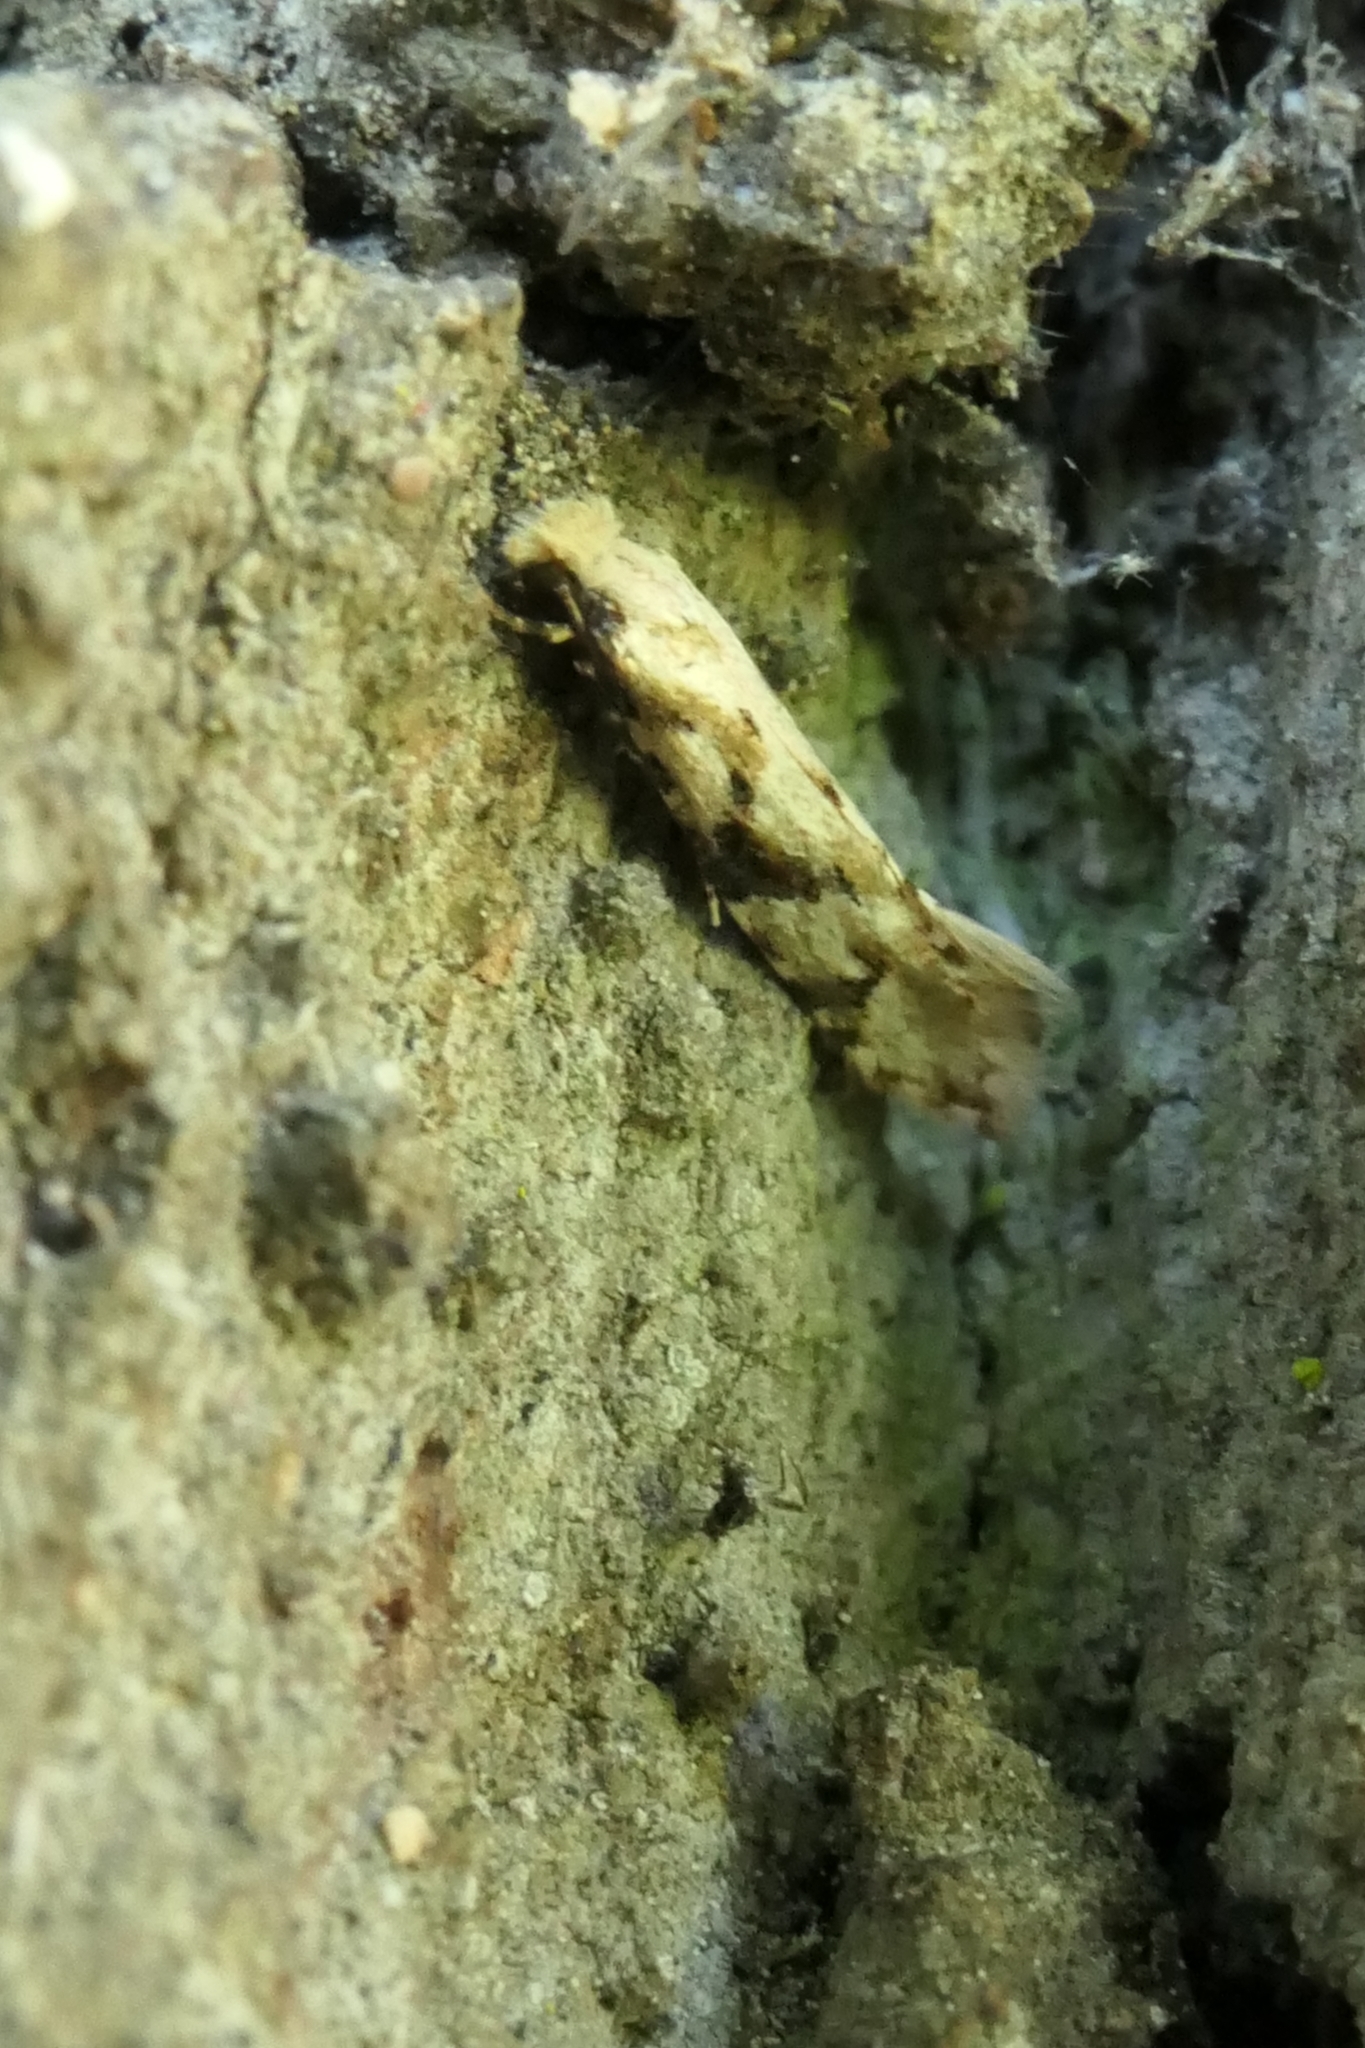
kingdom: Animalia
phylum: Arthropoda
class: Insecta
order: Lepidoptera
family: Tineidae
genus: Crypsitricha
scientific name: Crypsitricha mesotypa
